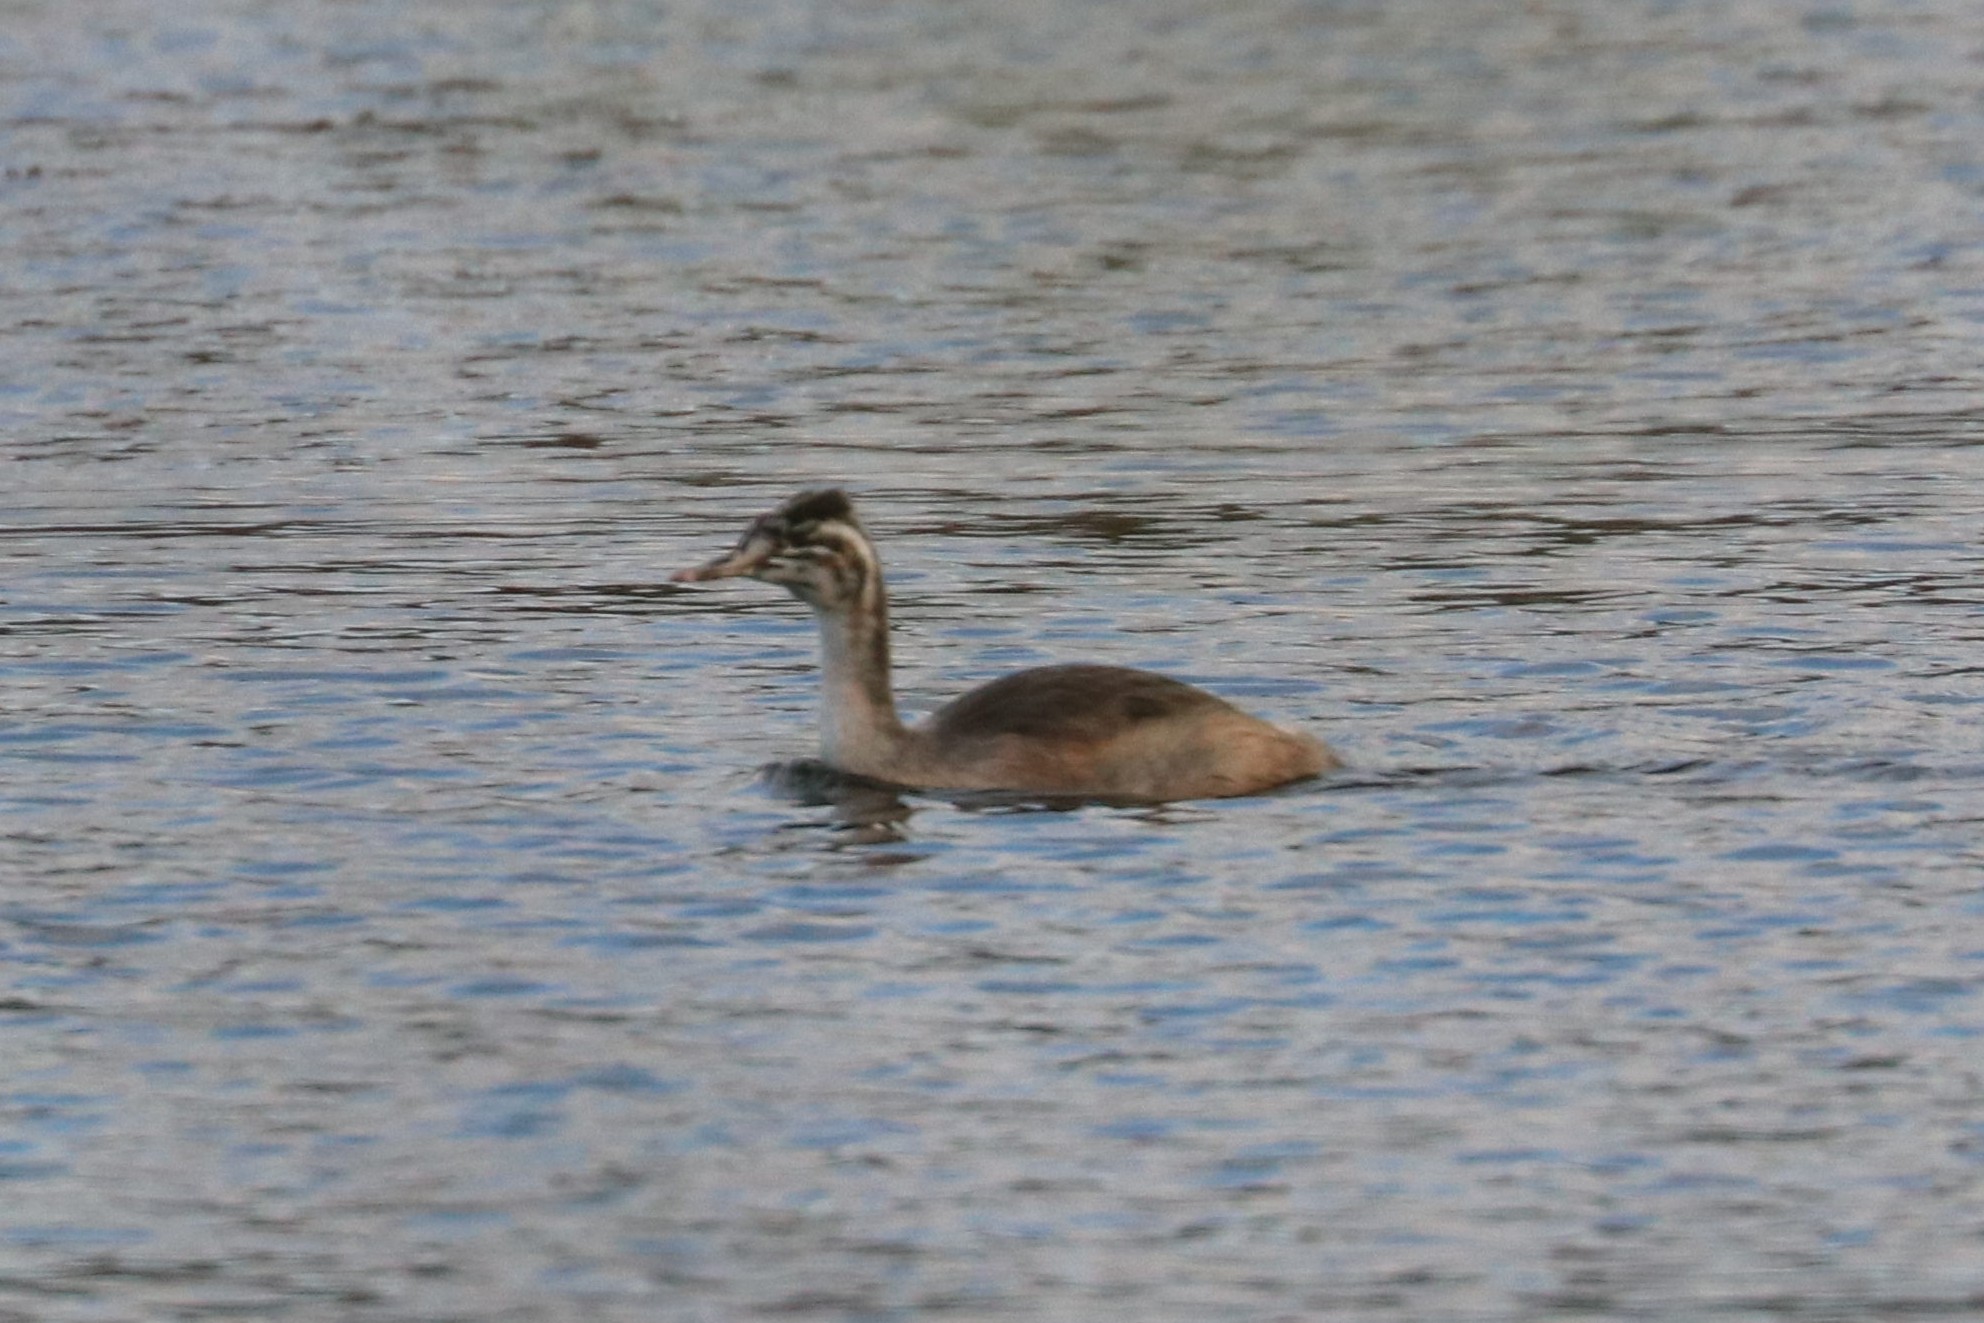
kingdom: Animalia
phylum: Chordata
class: Aves
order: Podicipediformes
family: Podicipedidae
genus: Podiceps
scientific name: Podiceps cristatus
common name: Great crested grebe
